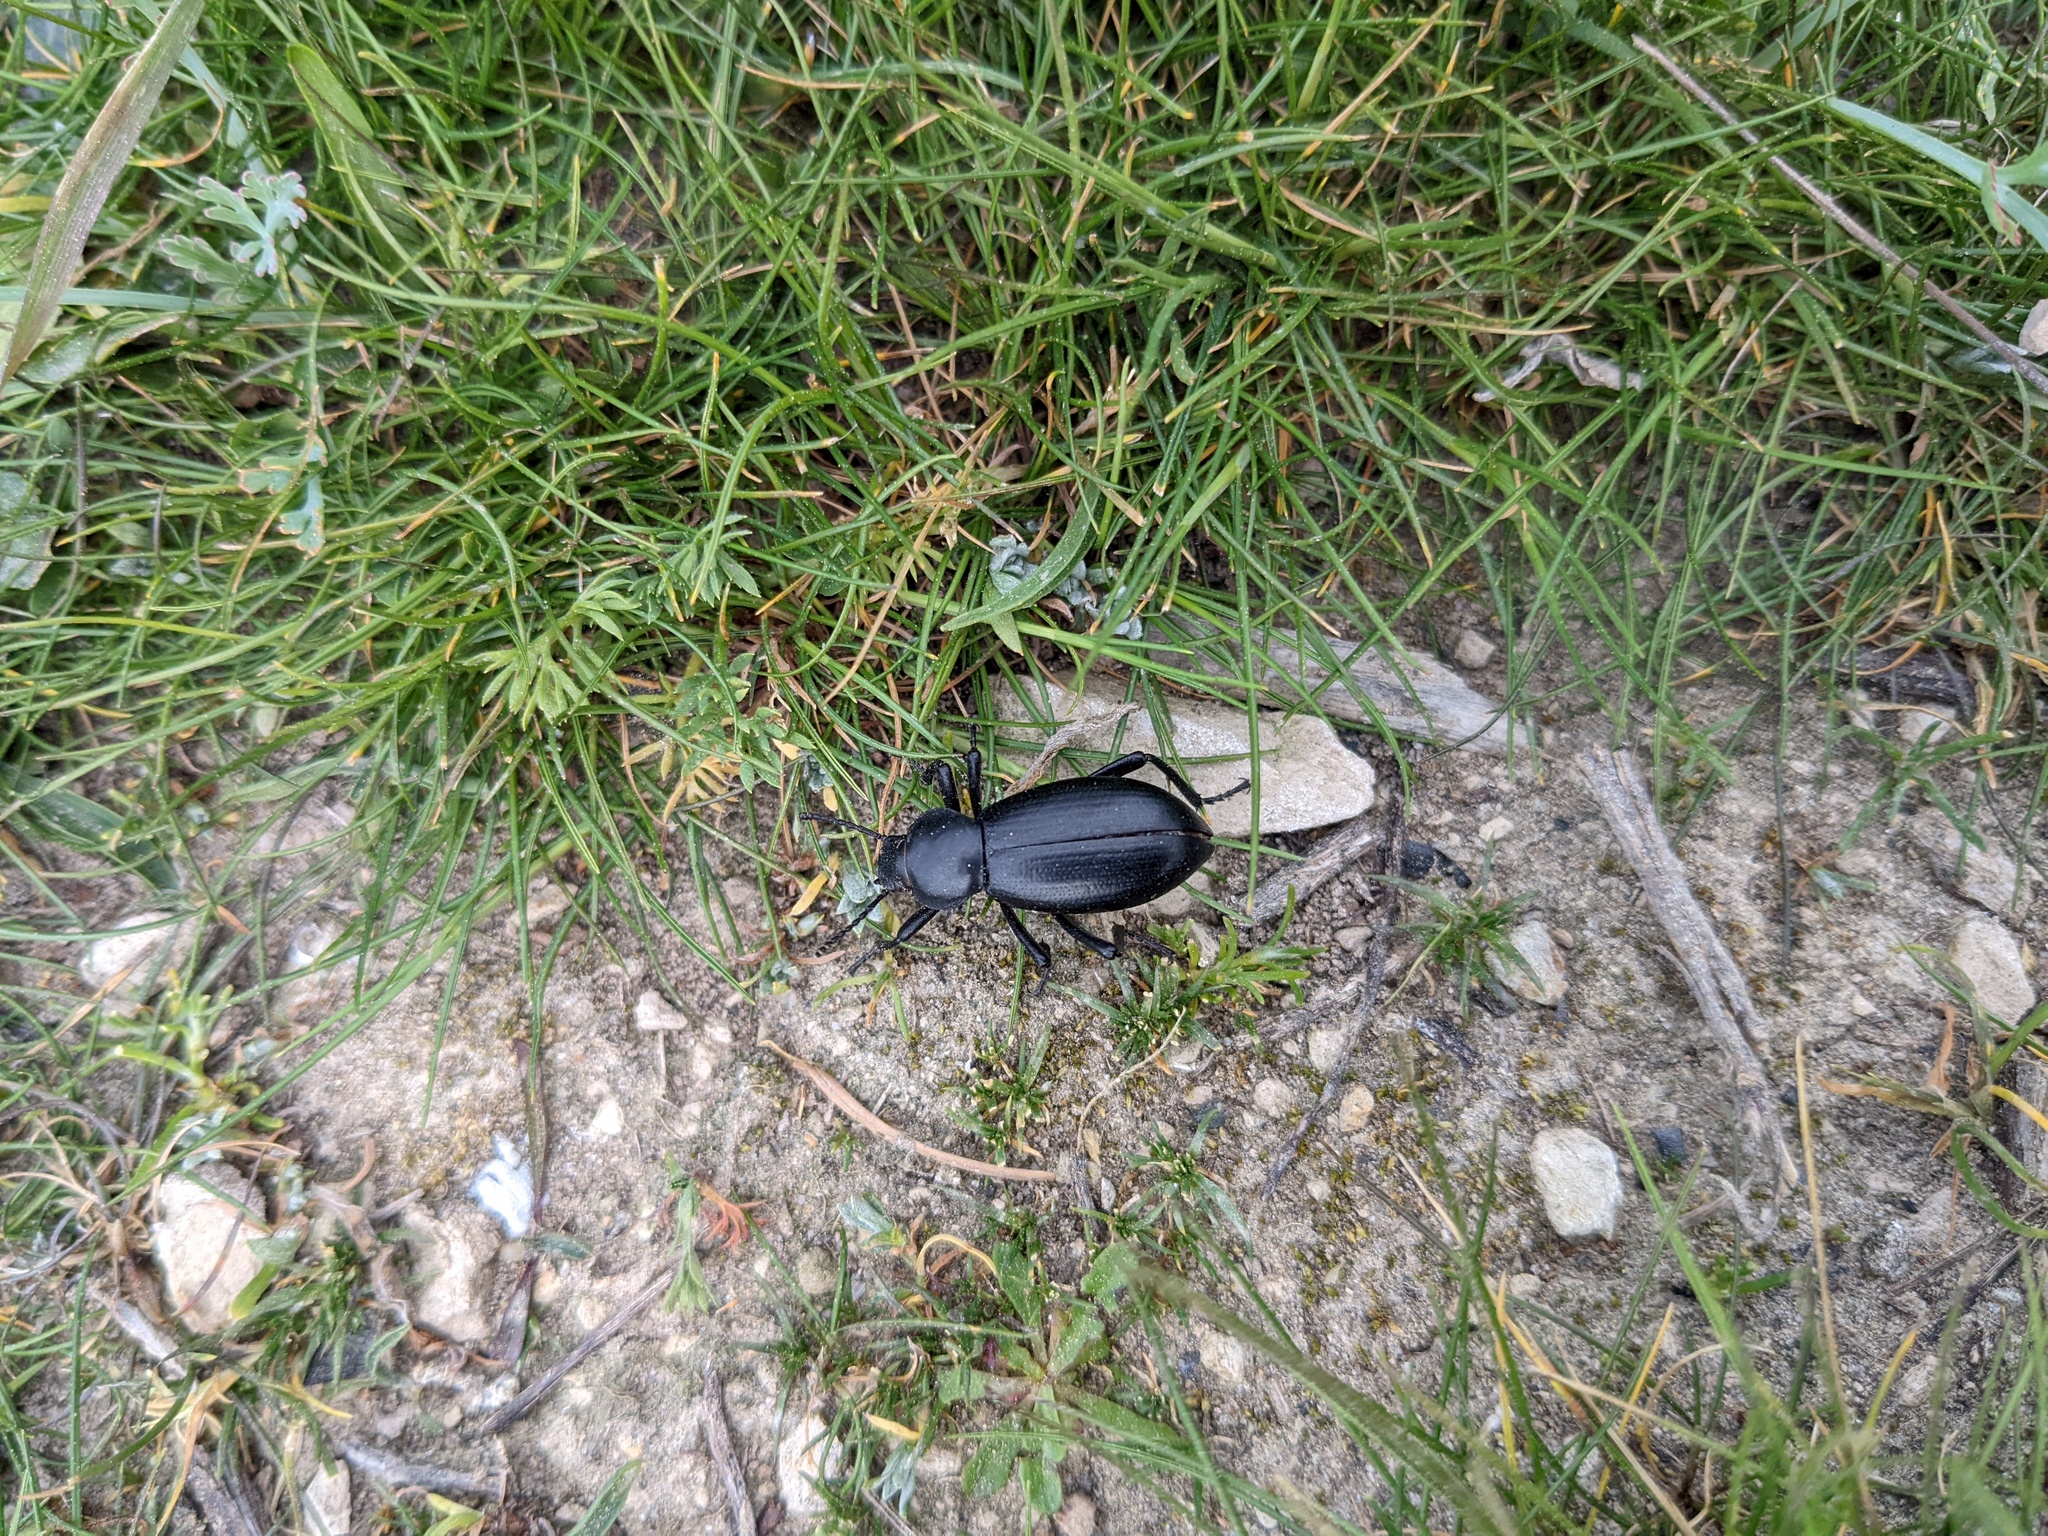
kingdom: Animalia
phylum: Arthropoda
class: Insecta
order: Coleoptera
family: Tenebrionidae
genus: Eleodes
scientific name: Eleodes dentipes
